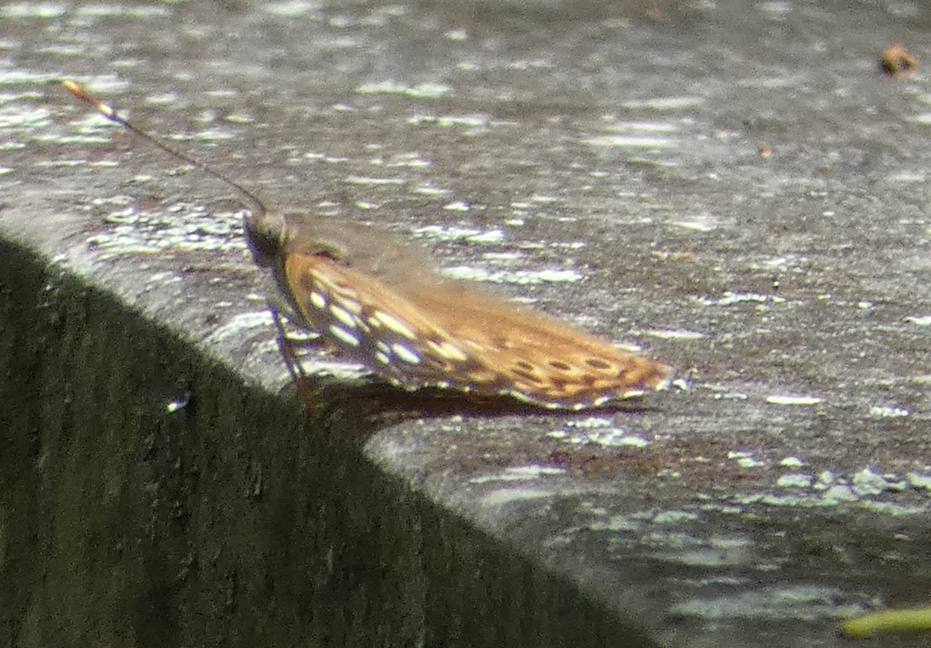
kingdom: Animalia
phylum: Arthropoda
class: Insecta
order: Lepidoptera
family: Nymphalidae
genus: Asterocampa
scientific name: Asterocampa celtis
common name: Hackberry emperor
